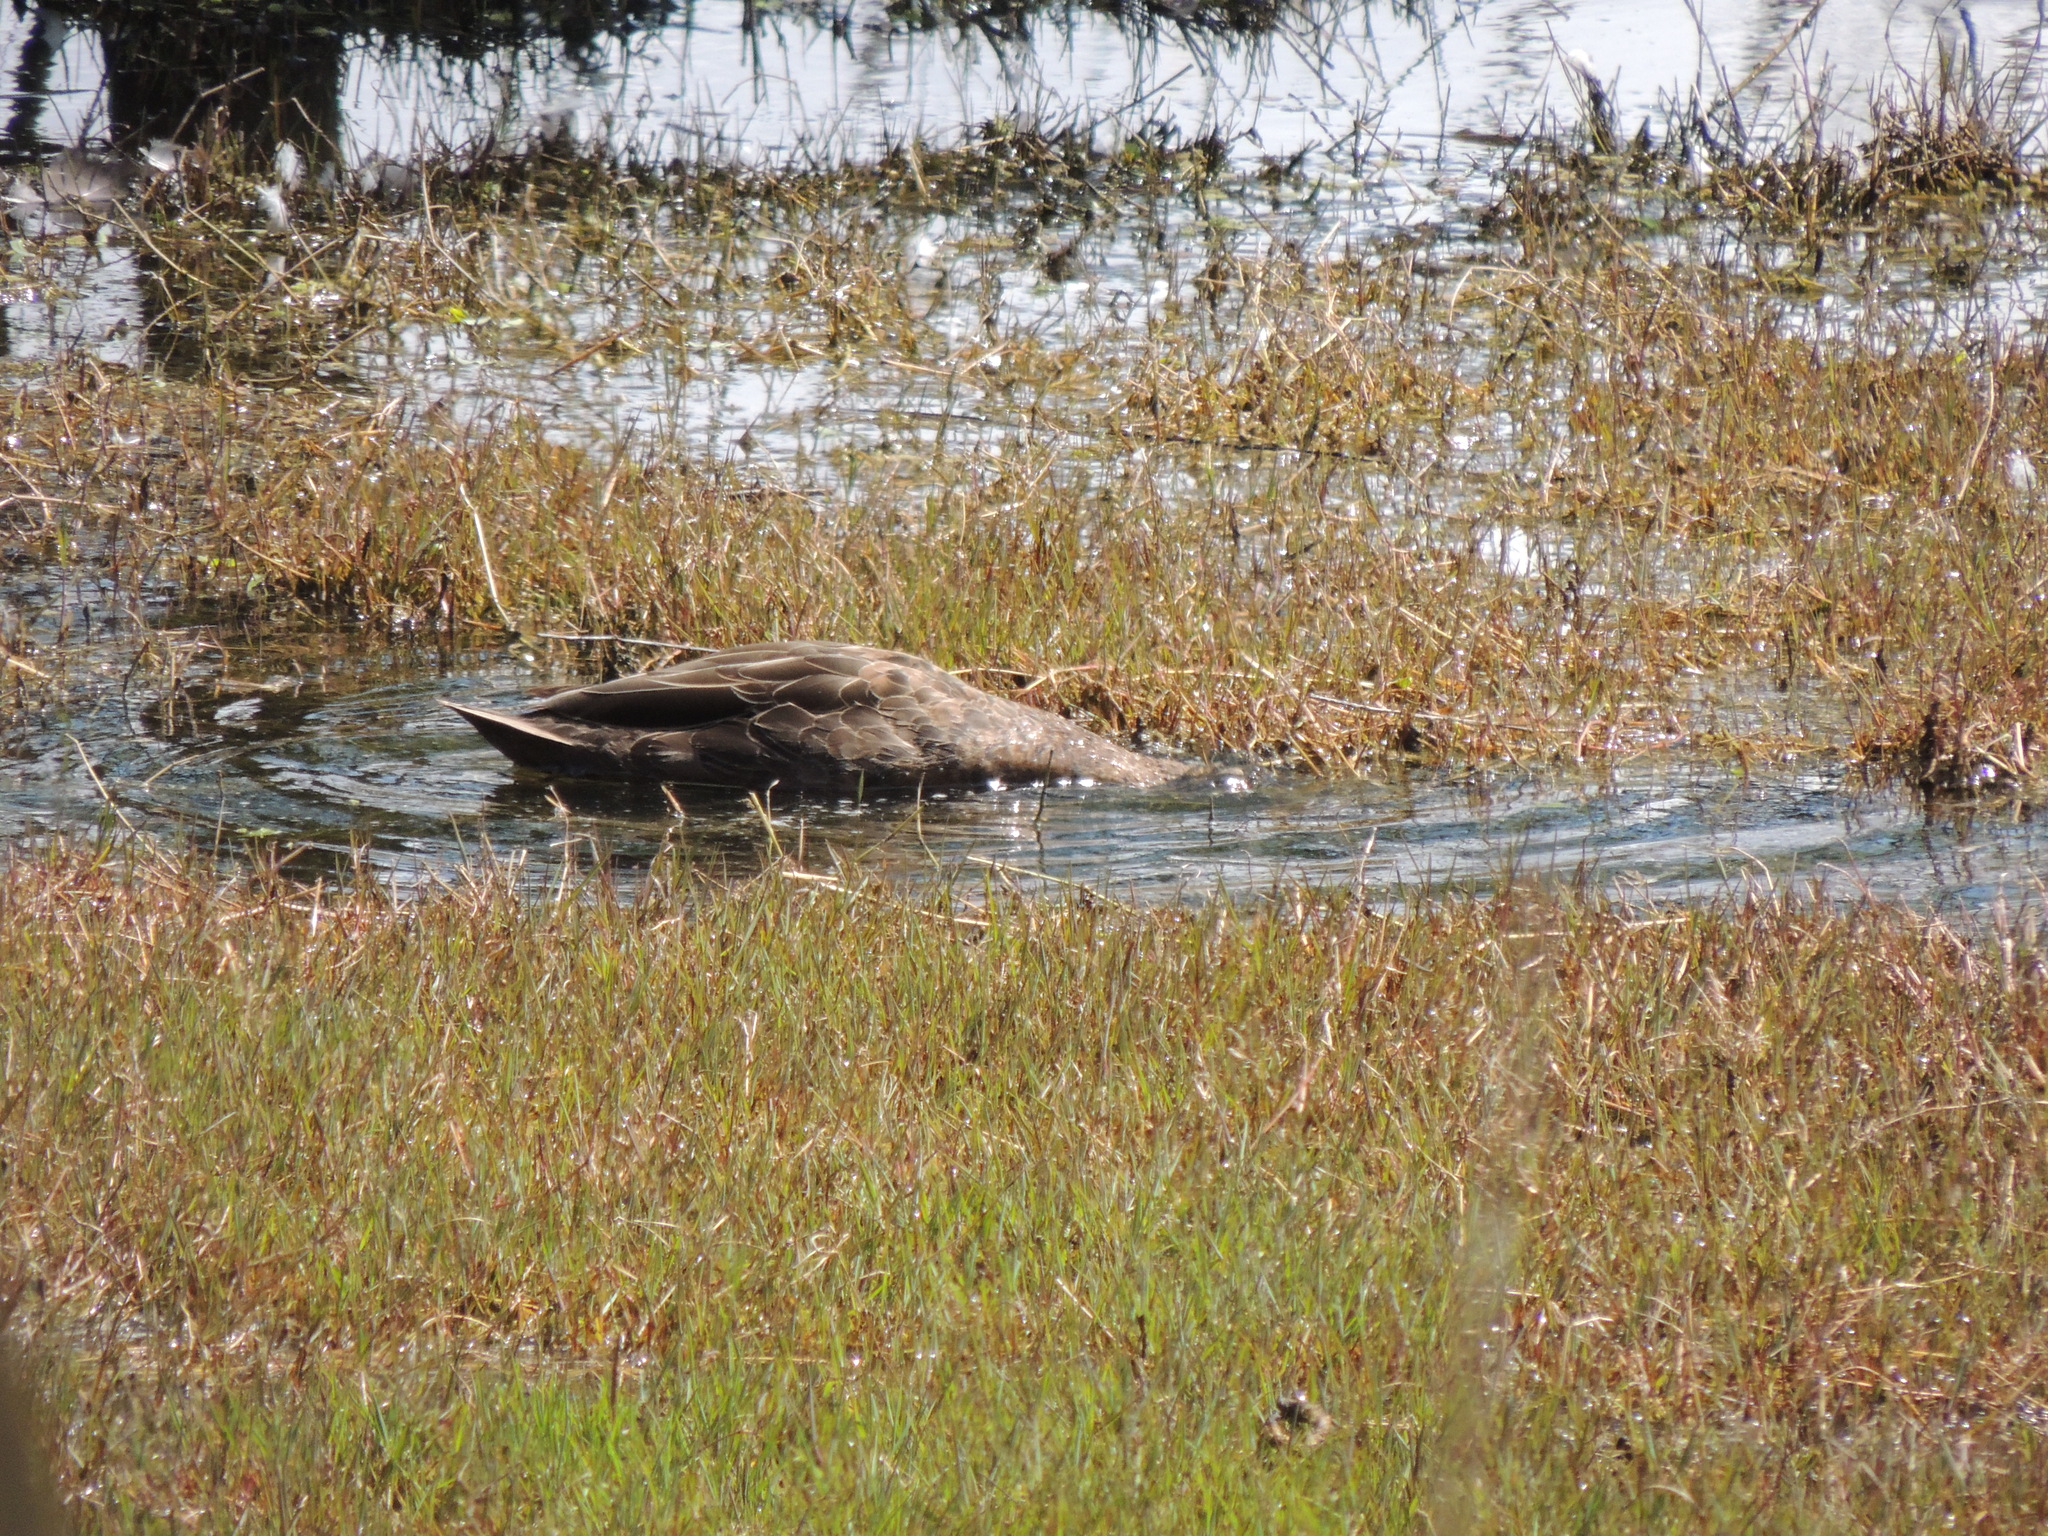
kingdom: Animalia
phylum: Chordata
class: Aves
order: Anseriformes
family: Anatidae
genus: Anas
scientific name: Anas superciliosa
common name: Pacific black duck
